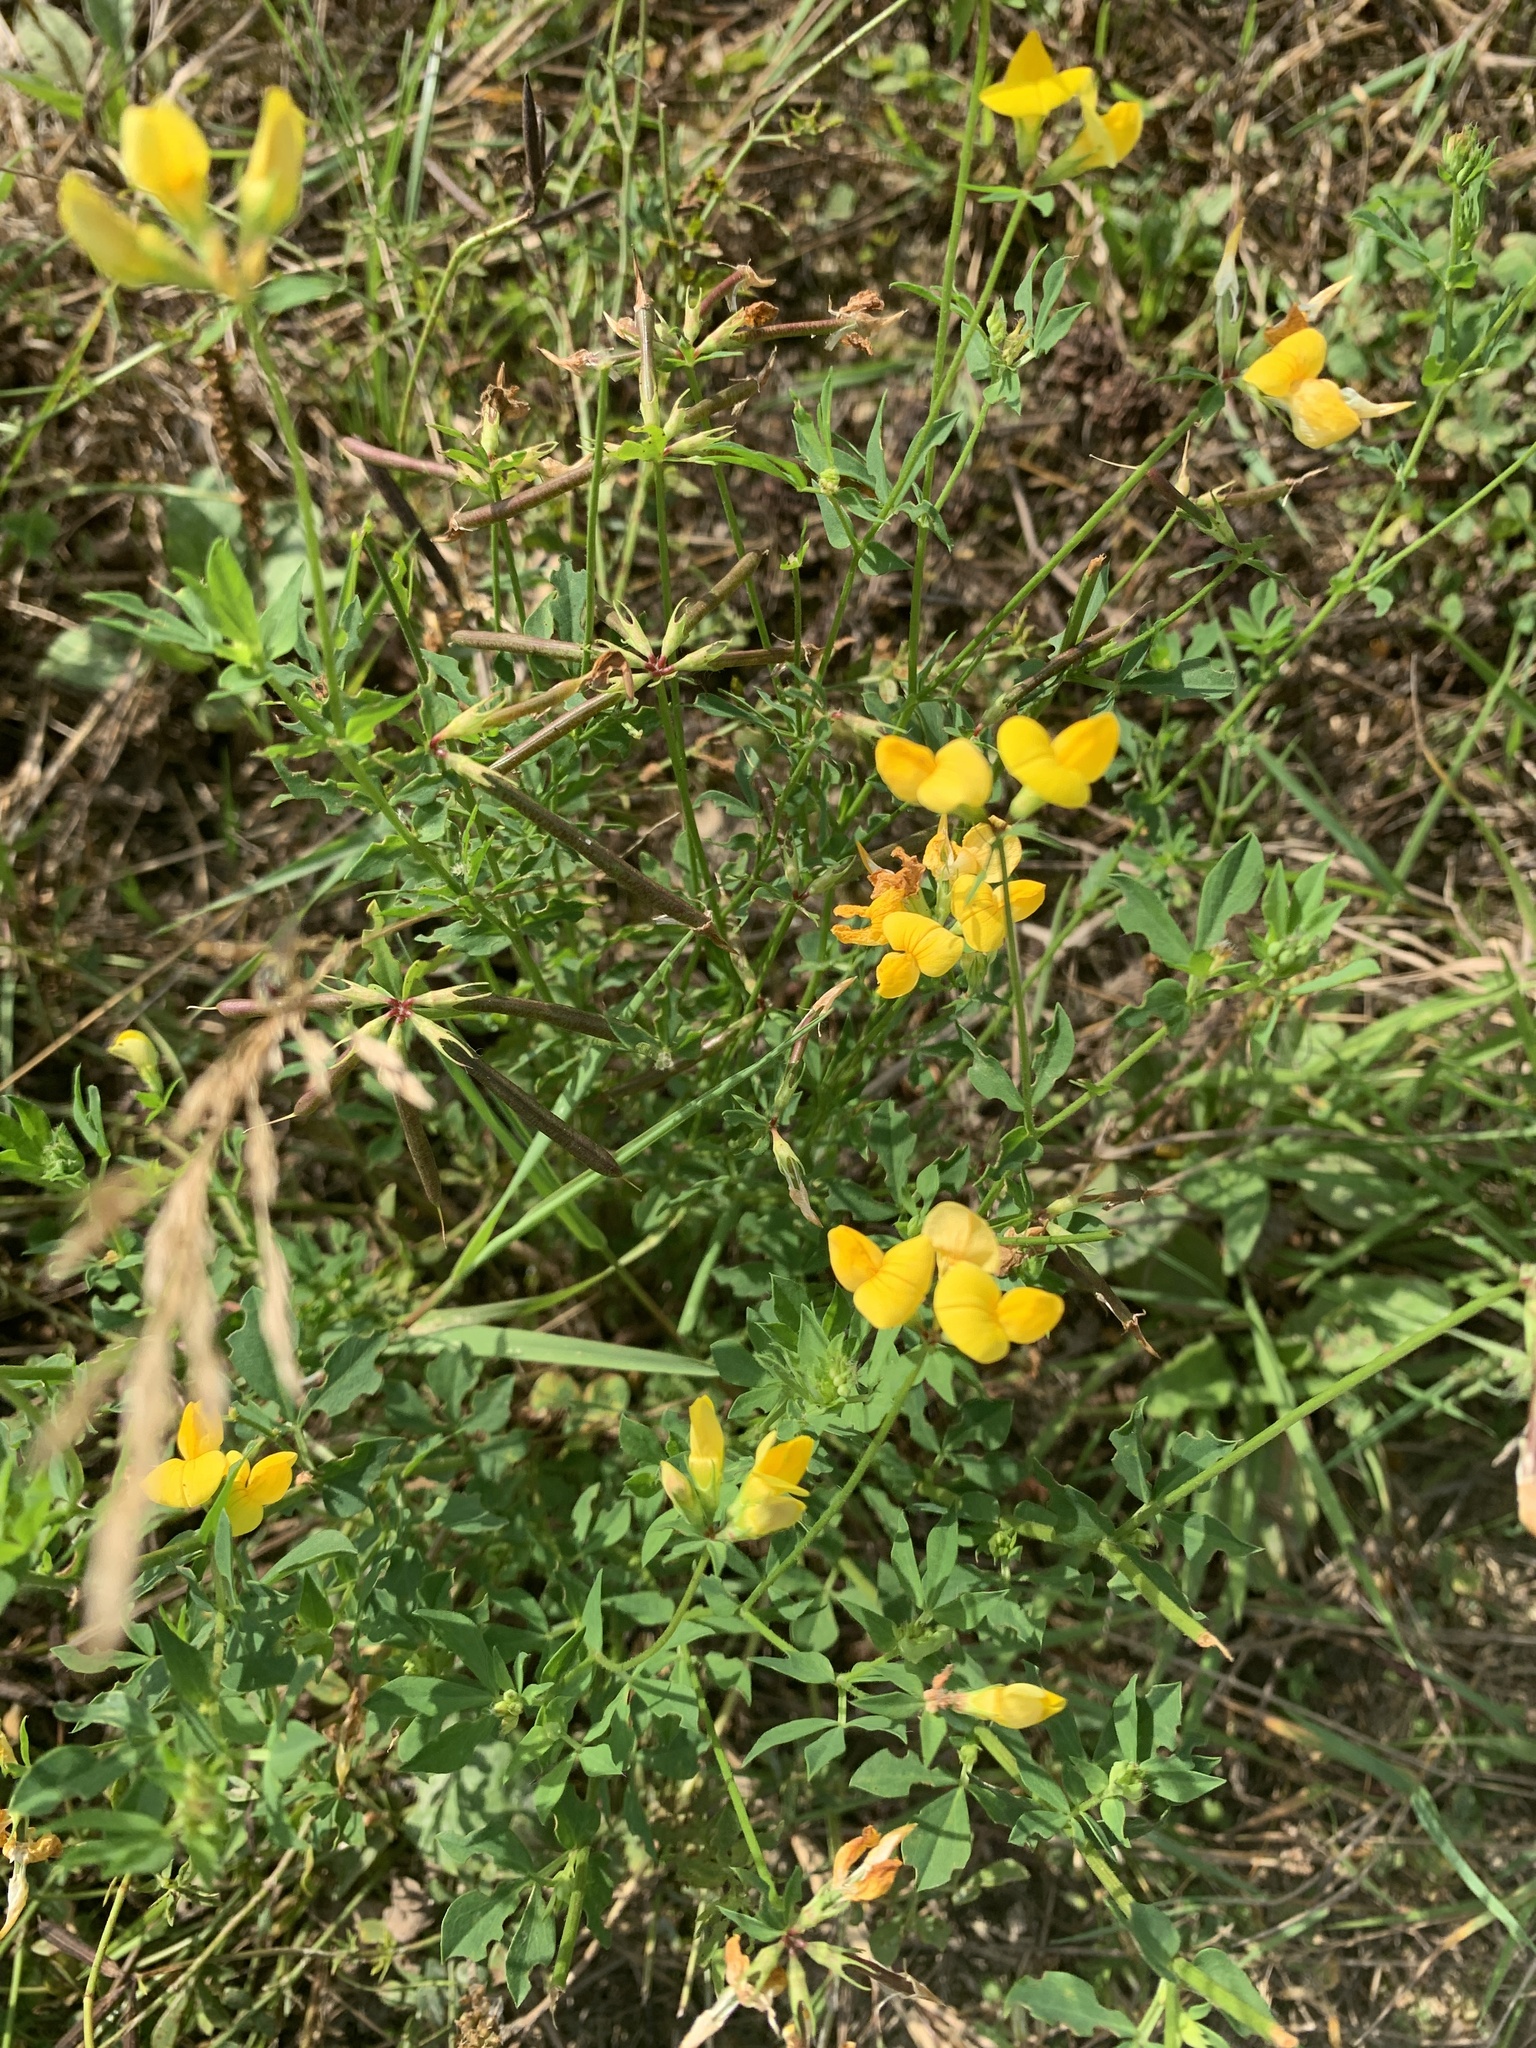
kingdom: Plantae
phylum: Tracheophyta
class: Magnoliopsida
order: Fabales
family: Fabaceae
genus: Lotus
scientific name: Lotus corniculatus
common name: Common bird's-foot-trefoil
